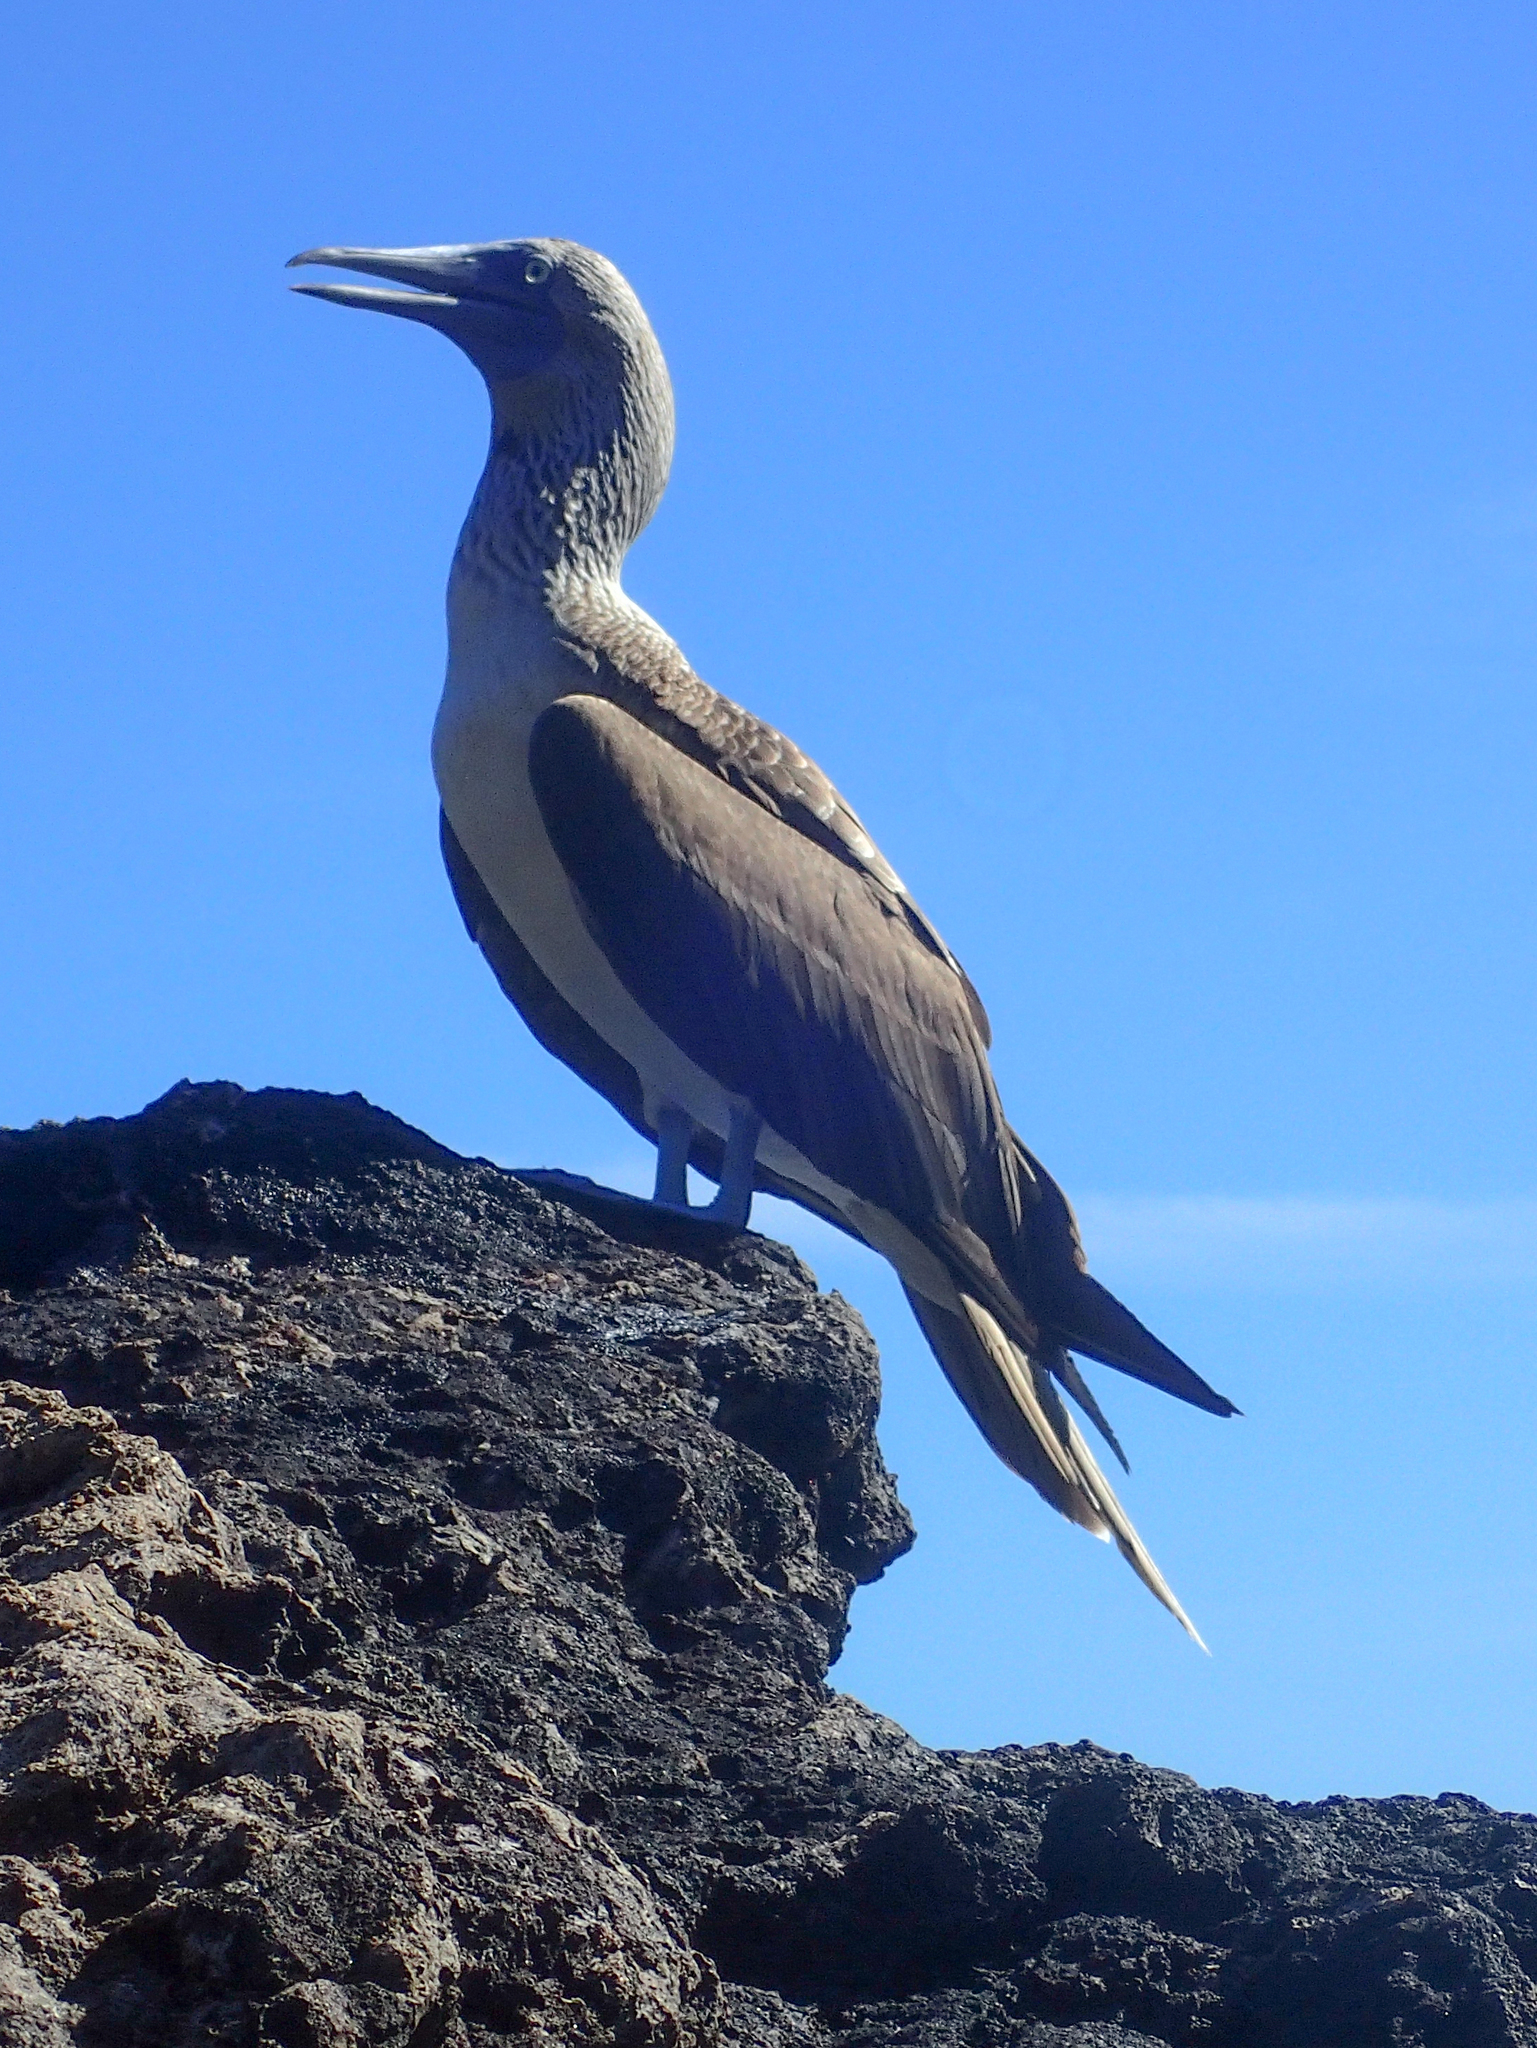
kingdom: Animalia
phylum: Chordata
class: Aves
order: Suliformes
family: Sulidae
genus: Sula
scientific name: Sula nebouxii
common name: Blue-footed booby
